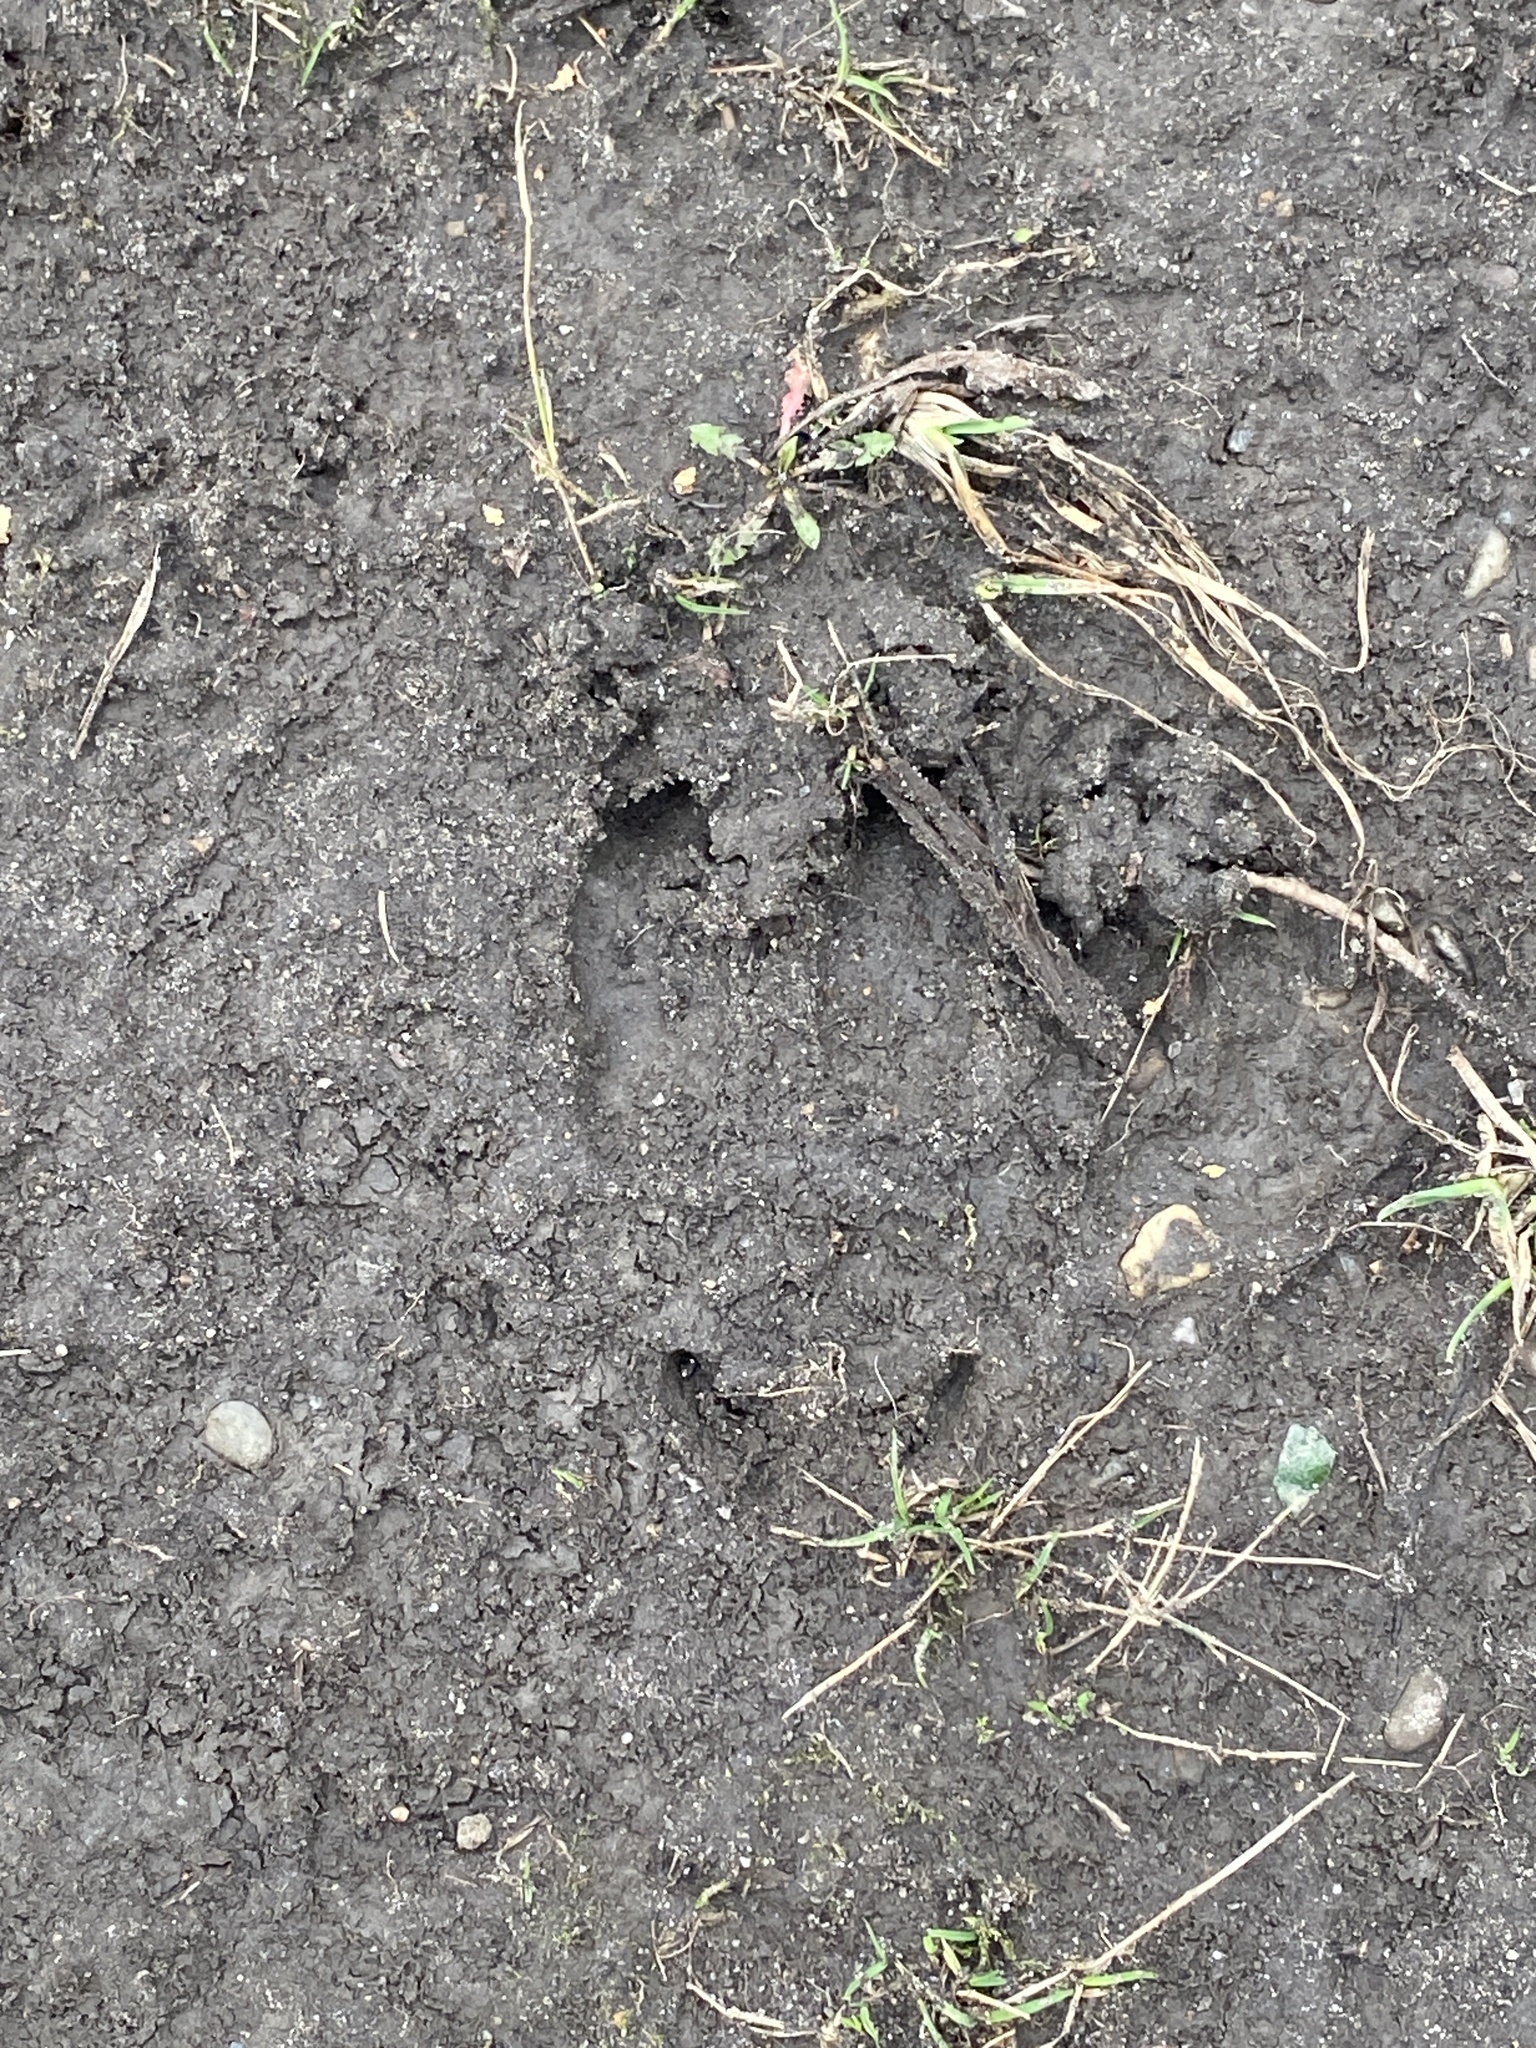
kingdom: Animalia
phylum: Chordata
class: Mammalia
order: Artiodactyla
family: Cervidae
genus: Odocoileus
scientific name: Odocoileus virginianus
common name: White-tailed deer
